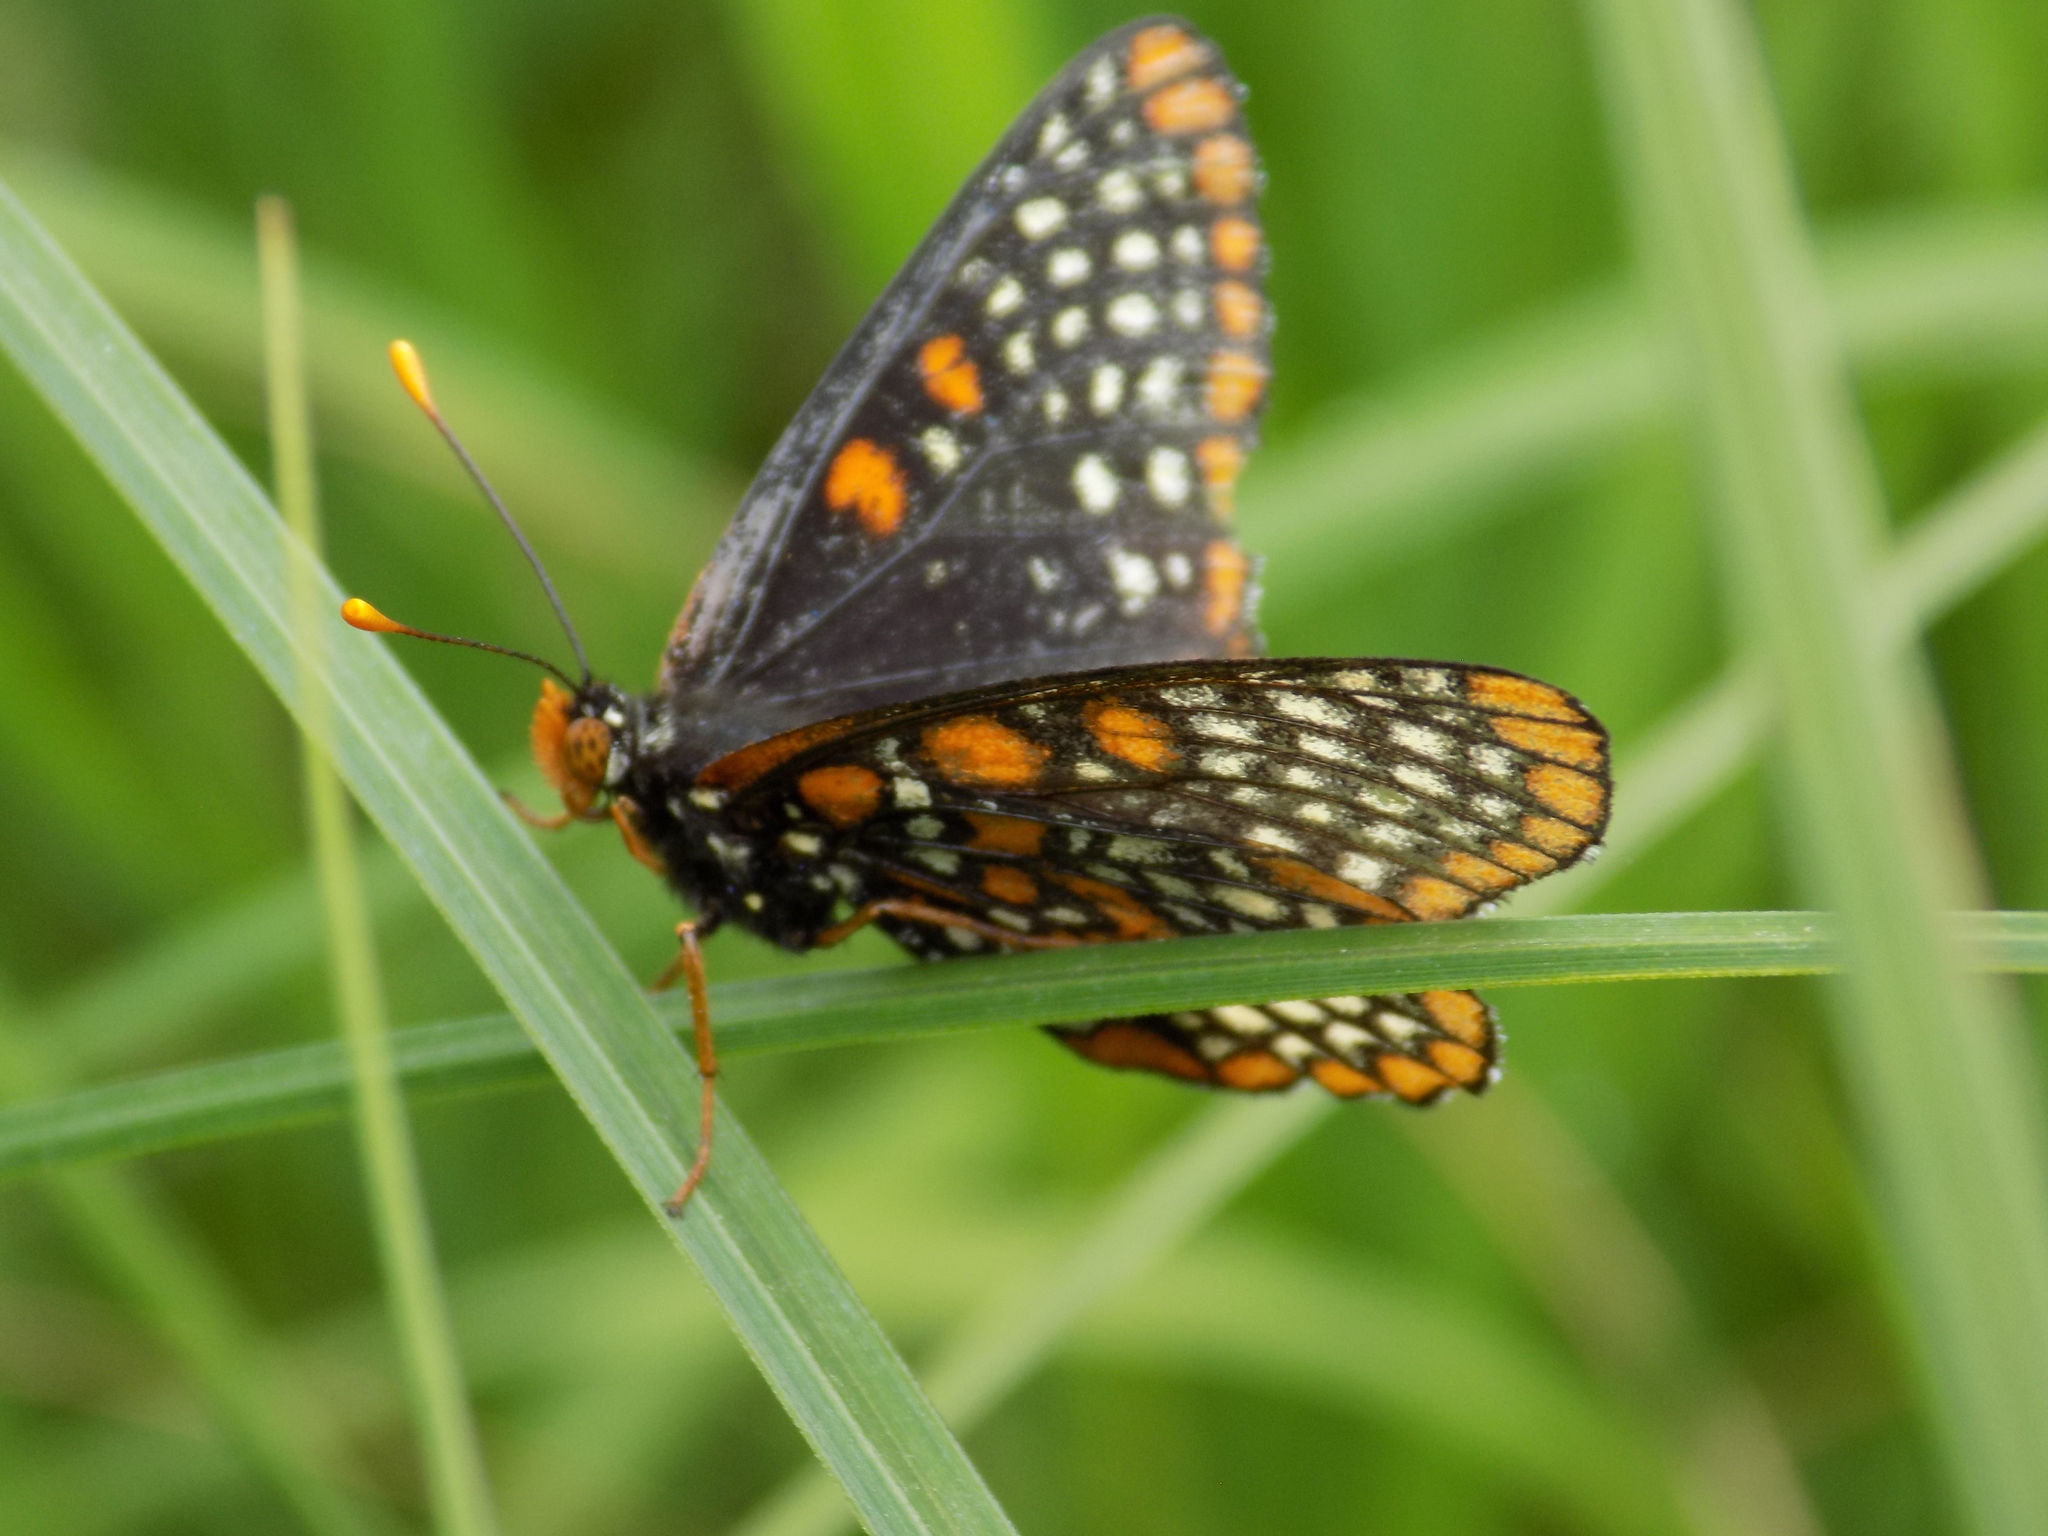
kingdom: Animalia
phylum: Arthropoda
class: Insecta
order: Lepidoptera
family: Nymphalidae
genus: Euphydryas
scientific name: Euphydryas phaeton
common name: Baltimore checkerspot
